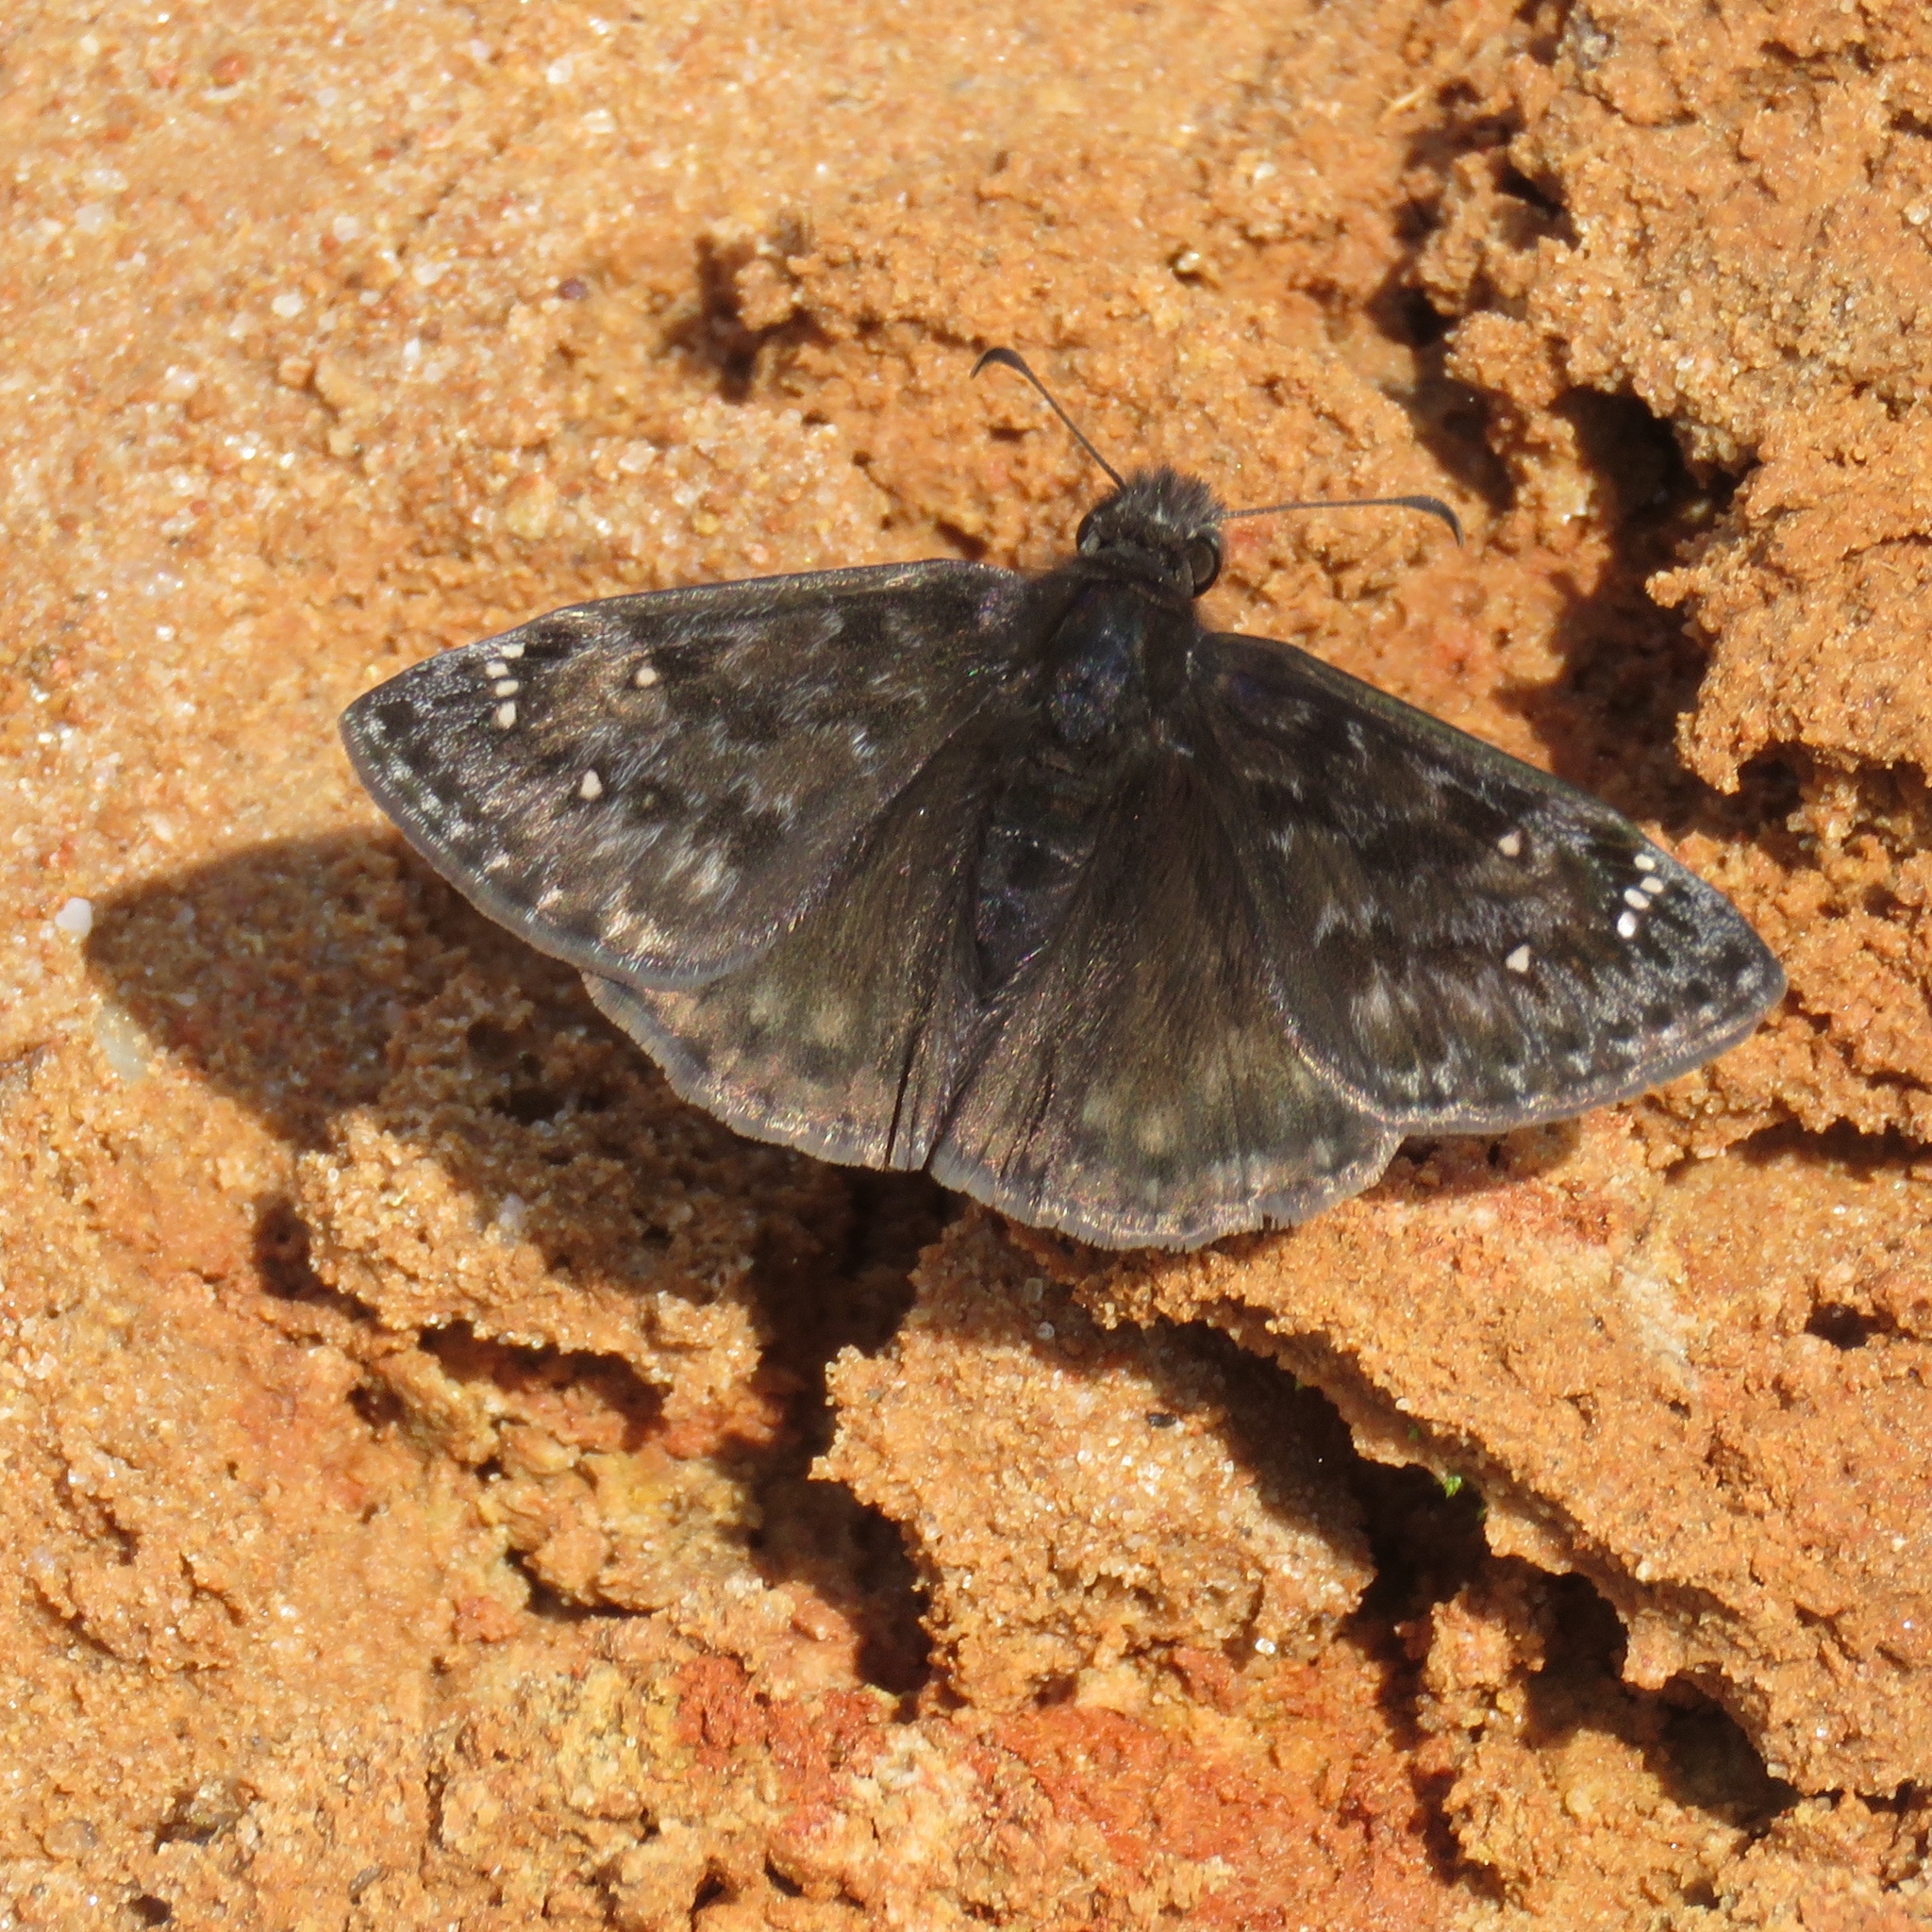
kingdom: Animalia
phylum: Arthropoda
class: Insecta
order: Lepidoptera
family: Hesperiidae
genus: Erynnis
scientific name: Erynnis
